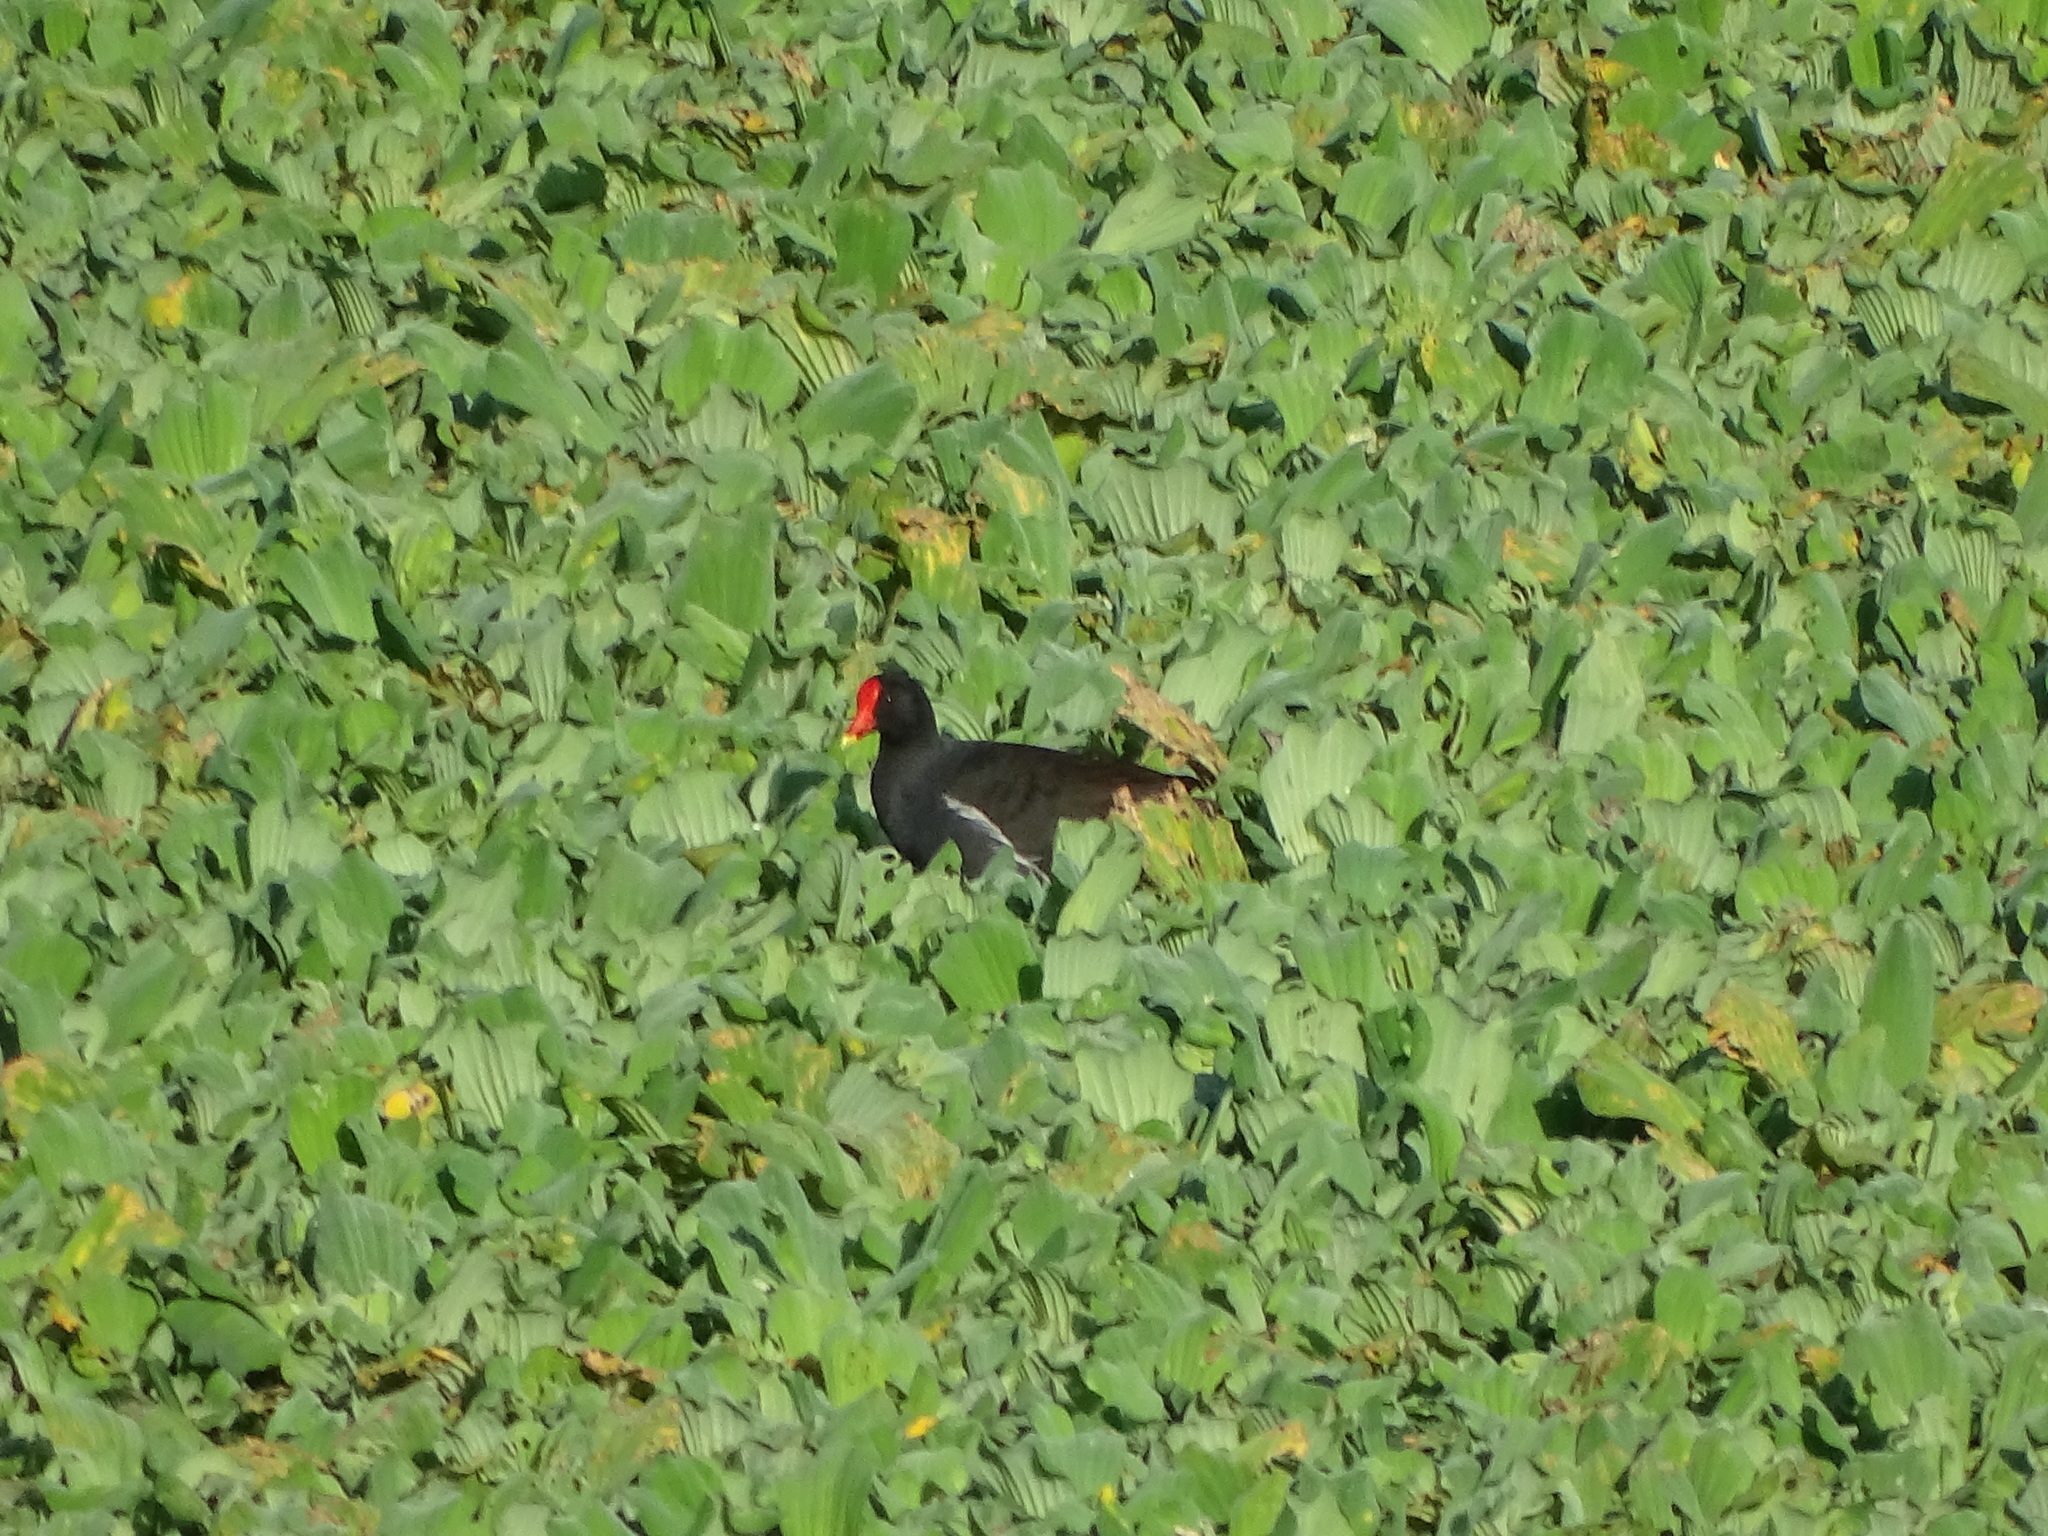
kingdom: Animalia
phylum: Chordata
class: Aves
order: Gruiformes
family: Rallidae
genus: Gallinula
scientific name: Gallinula chloropus
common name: Common moorhen
